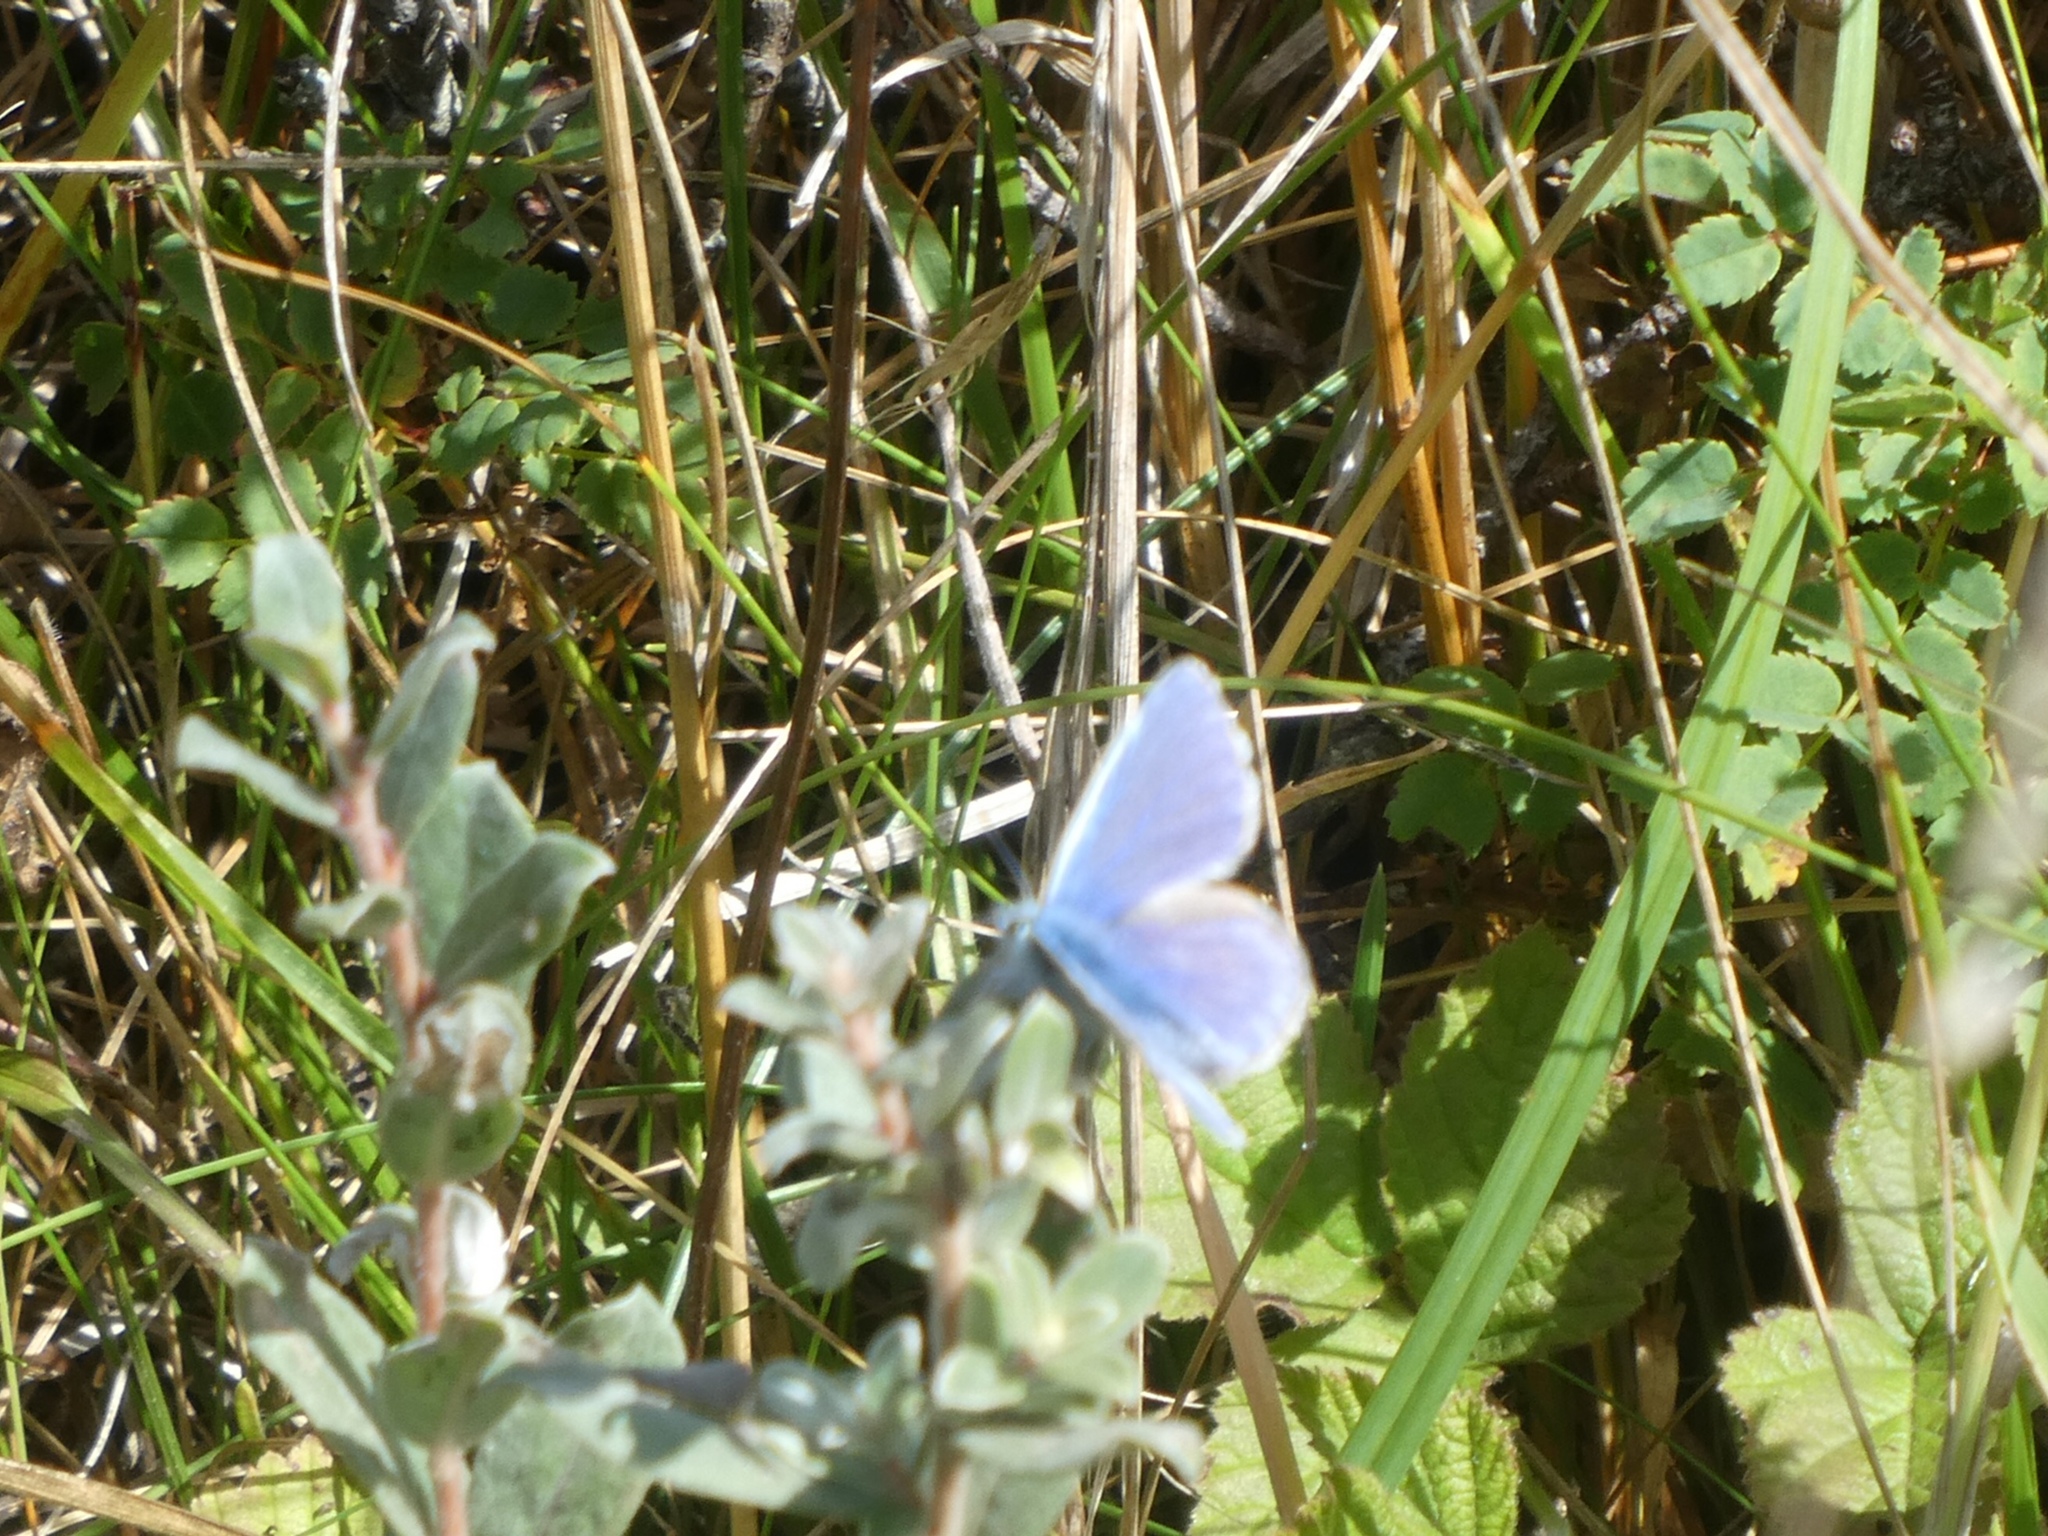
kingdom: Animalia
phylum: Arthropoda
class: Insecta
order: Lepidoptera
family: Lycaenidae
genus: Polyommatus
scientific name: Polyommatus icarus
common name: Common blue
